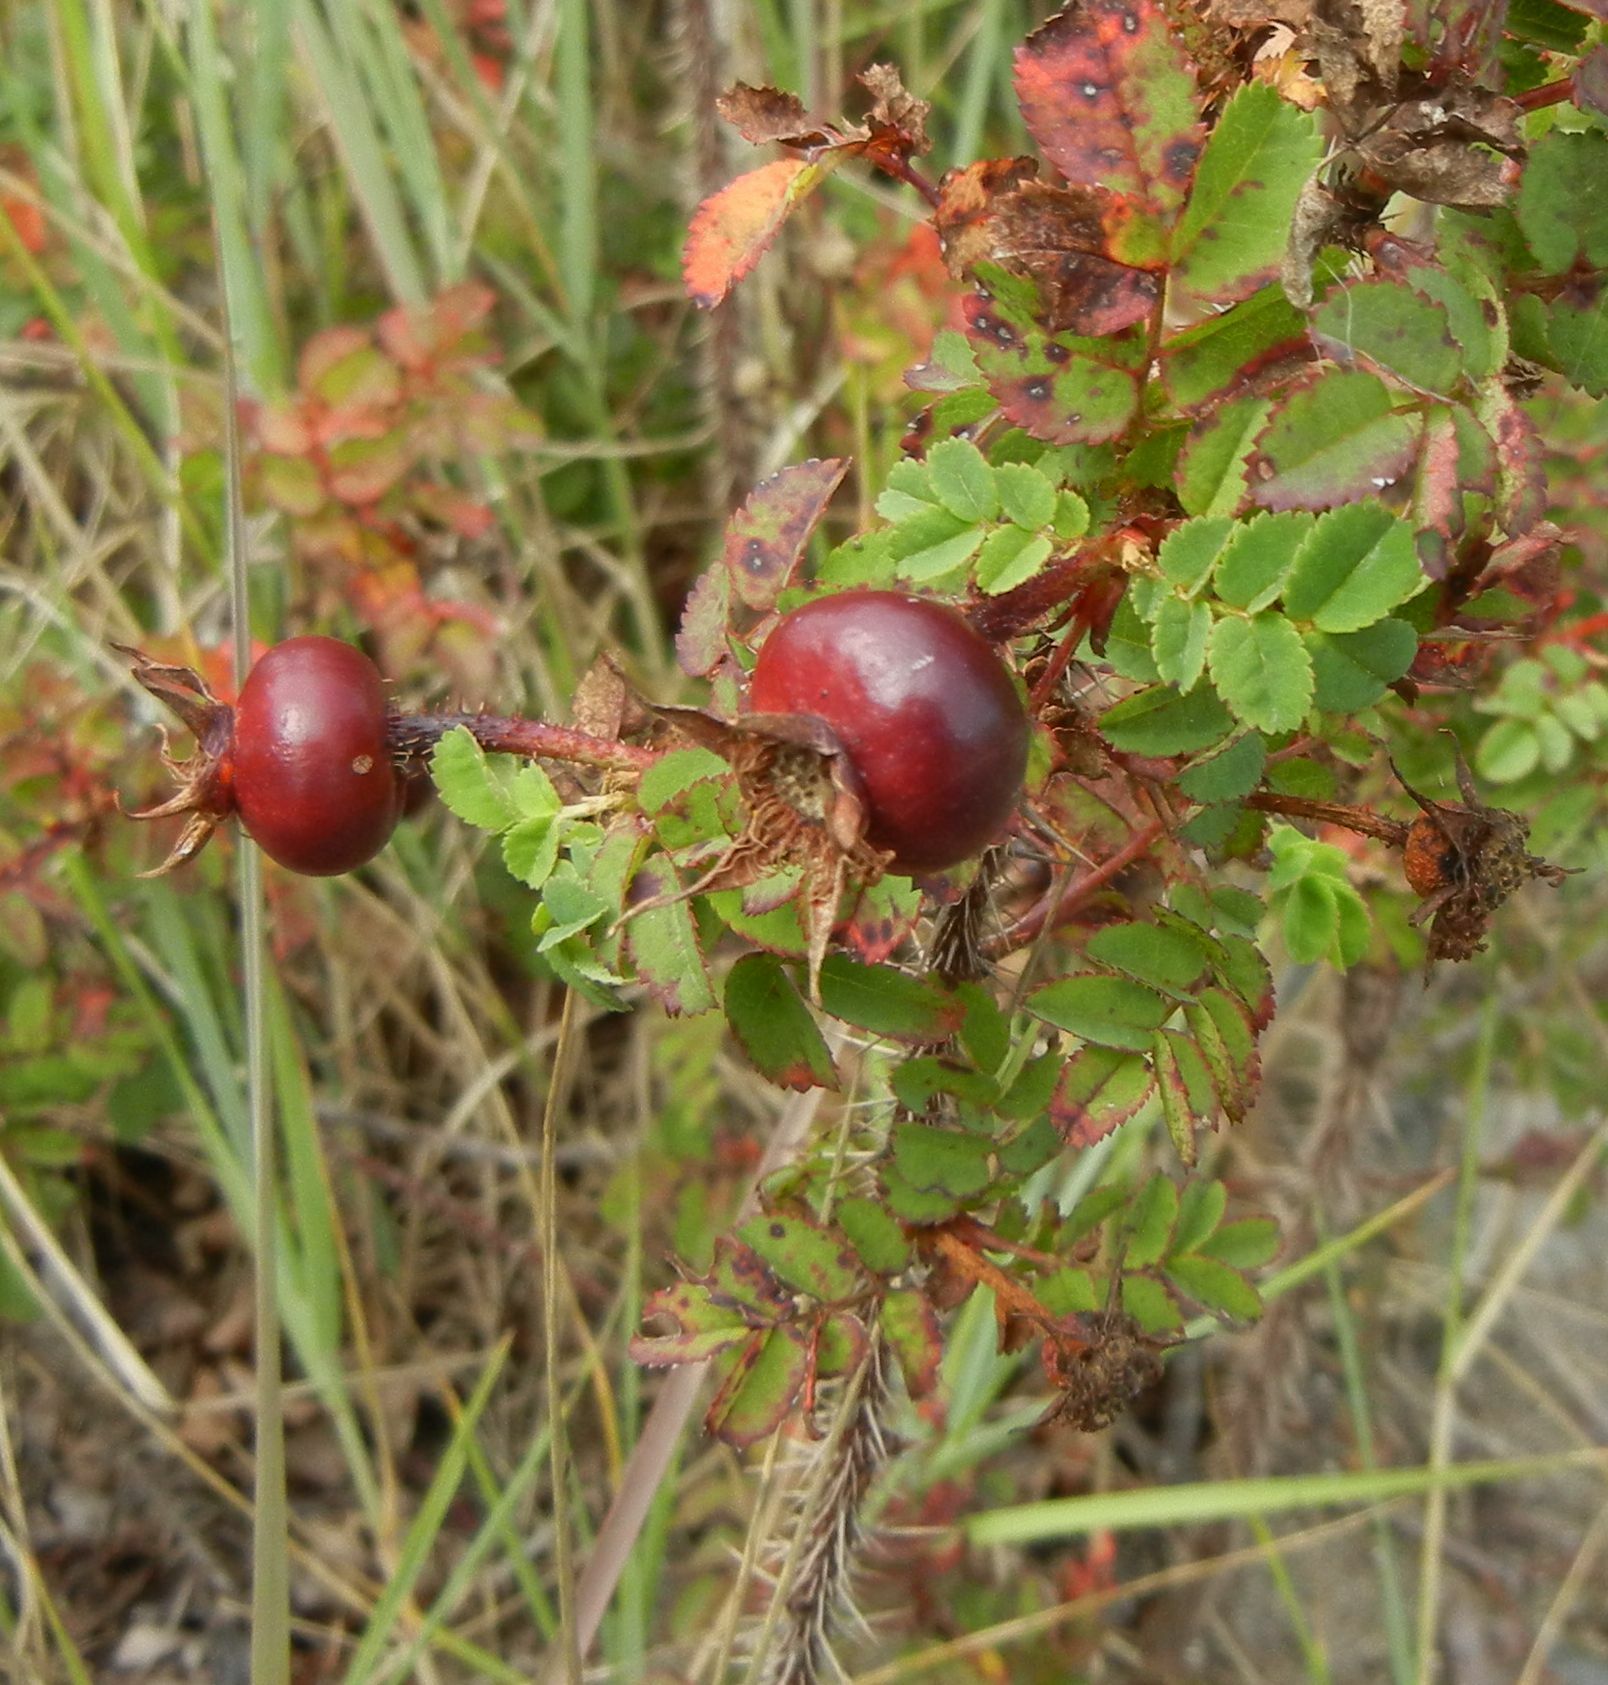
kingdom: Plantae
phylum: Tracheophyta
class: Magnoliopsida
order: Rosales
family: Rosaceae
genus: Rosa
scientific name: Rosa spinosissima
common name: Burnet rose
